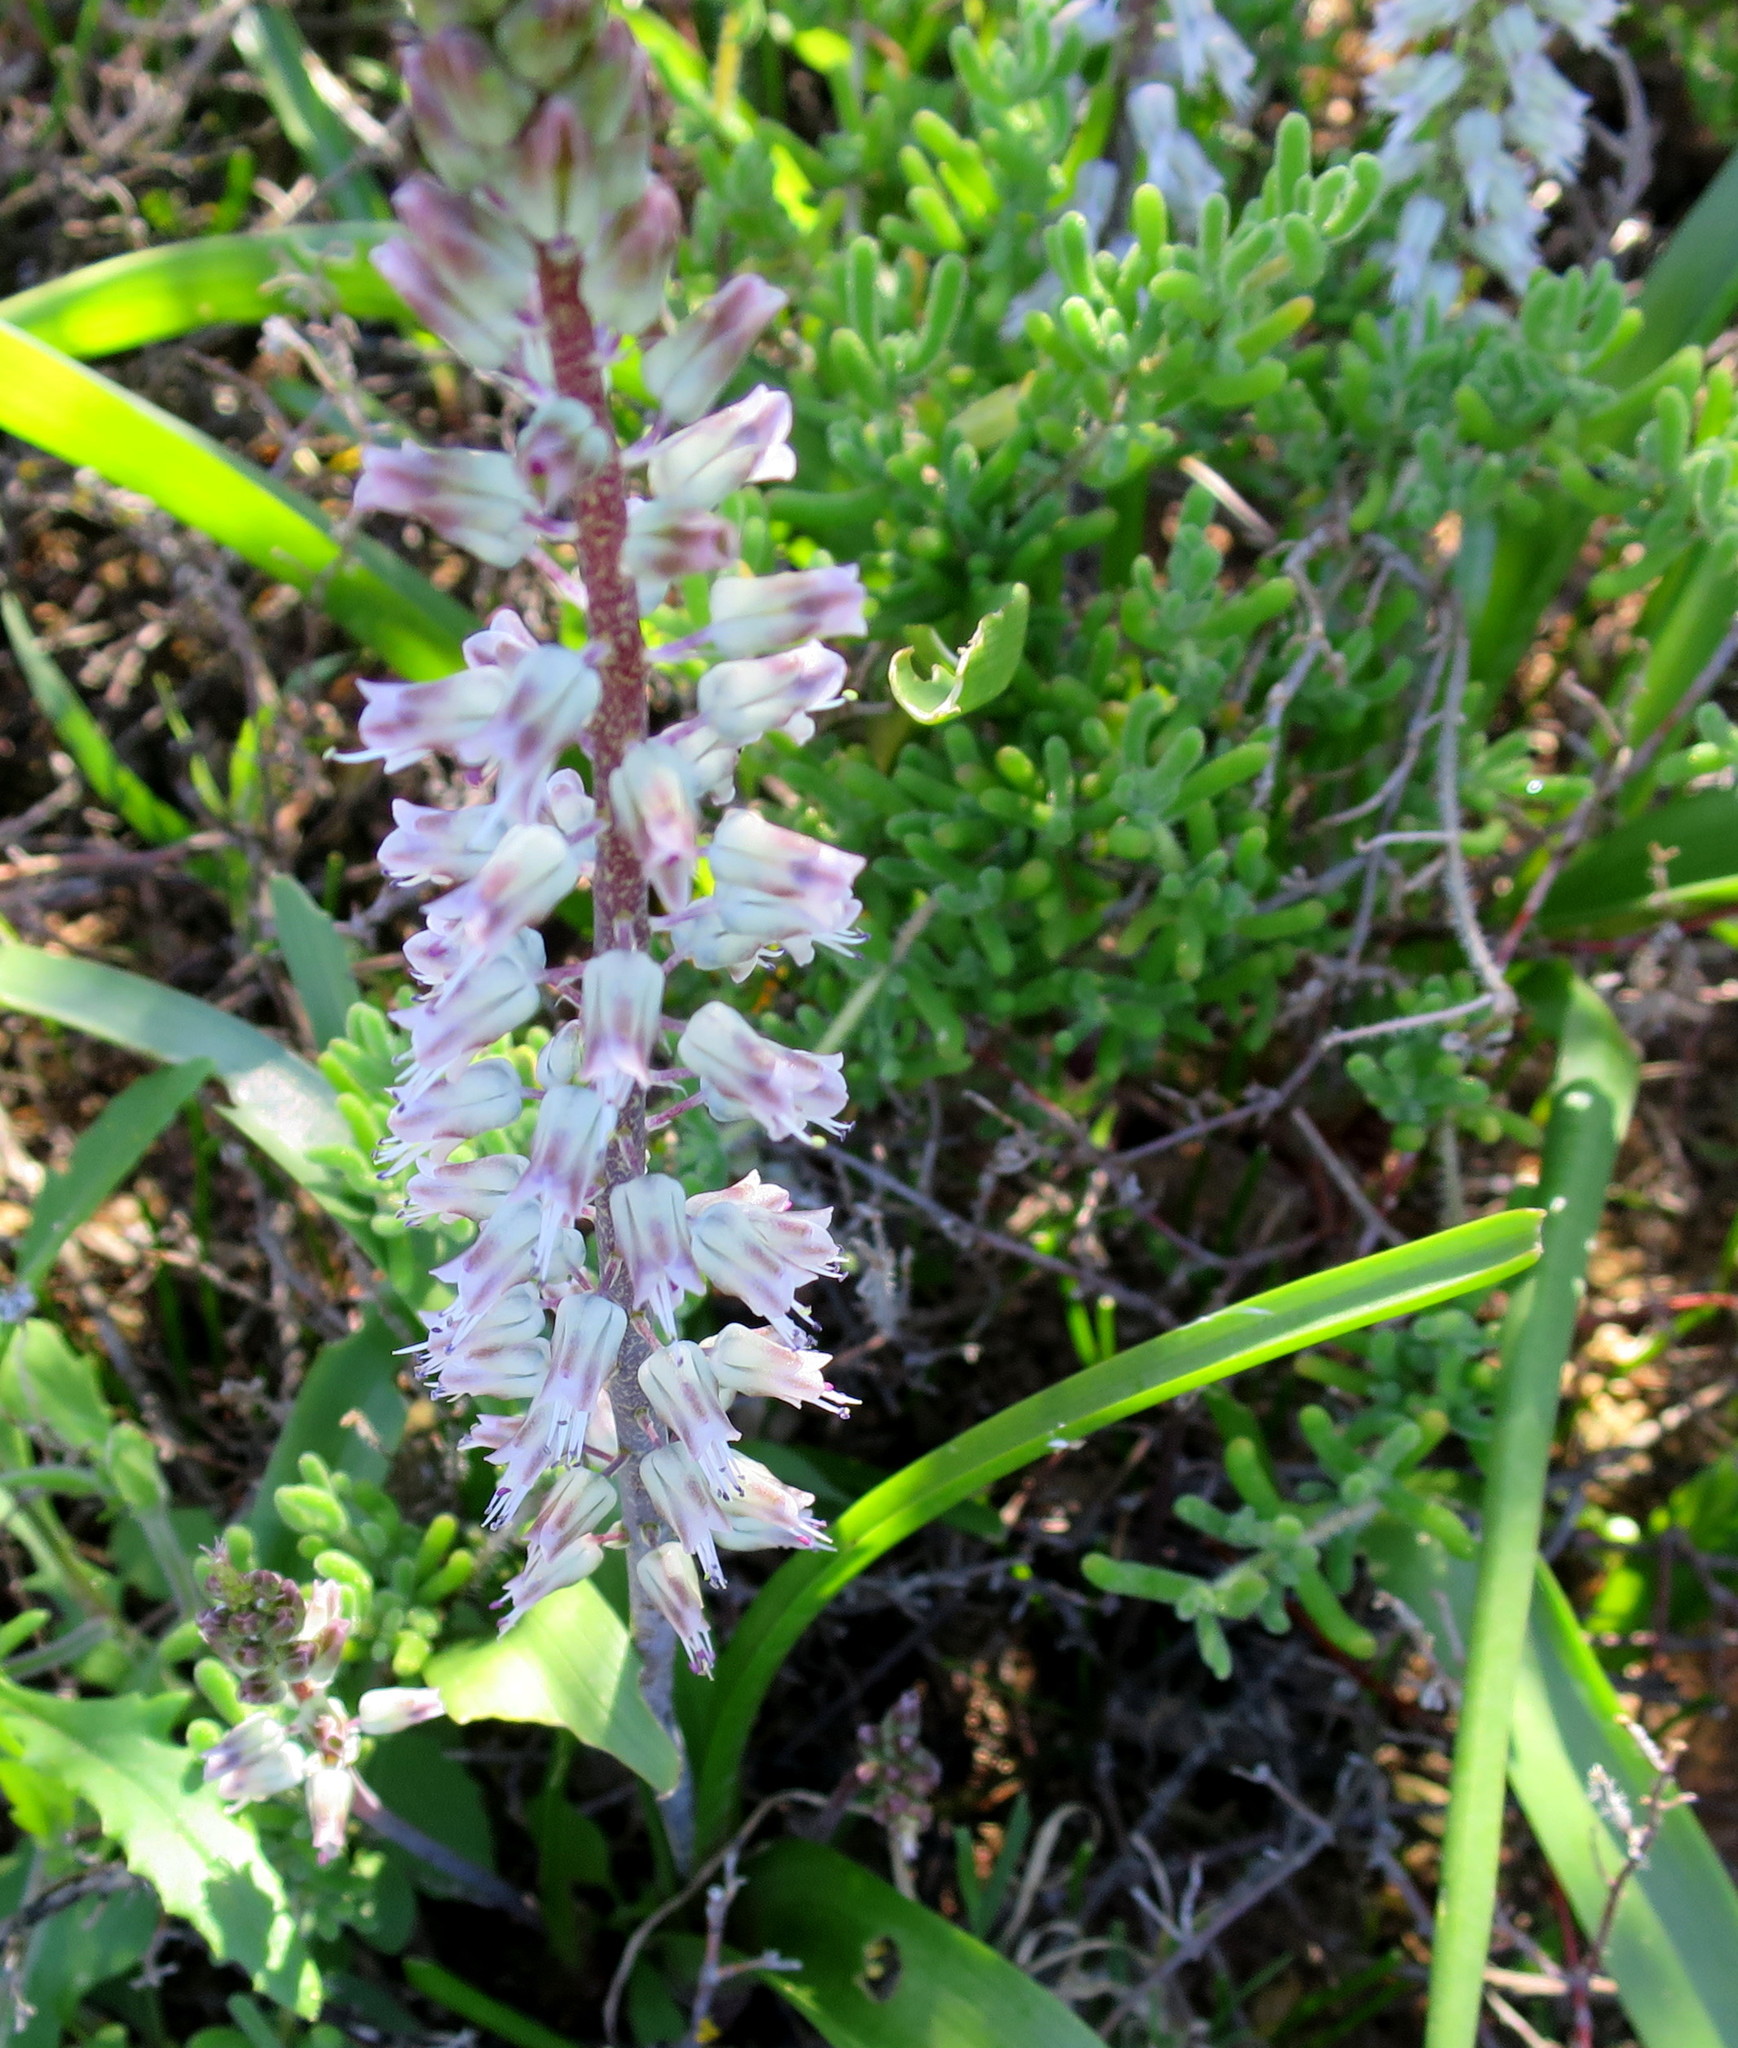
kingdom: Plantae
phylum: Tracheophyta
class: Liliopsida
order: Asparagales
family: Asparagaceae
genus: Lachenalia
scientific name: Lachenalia haarlemensis
